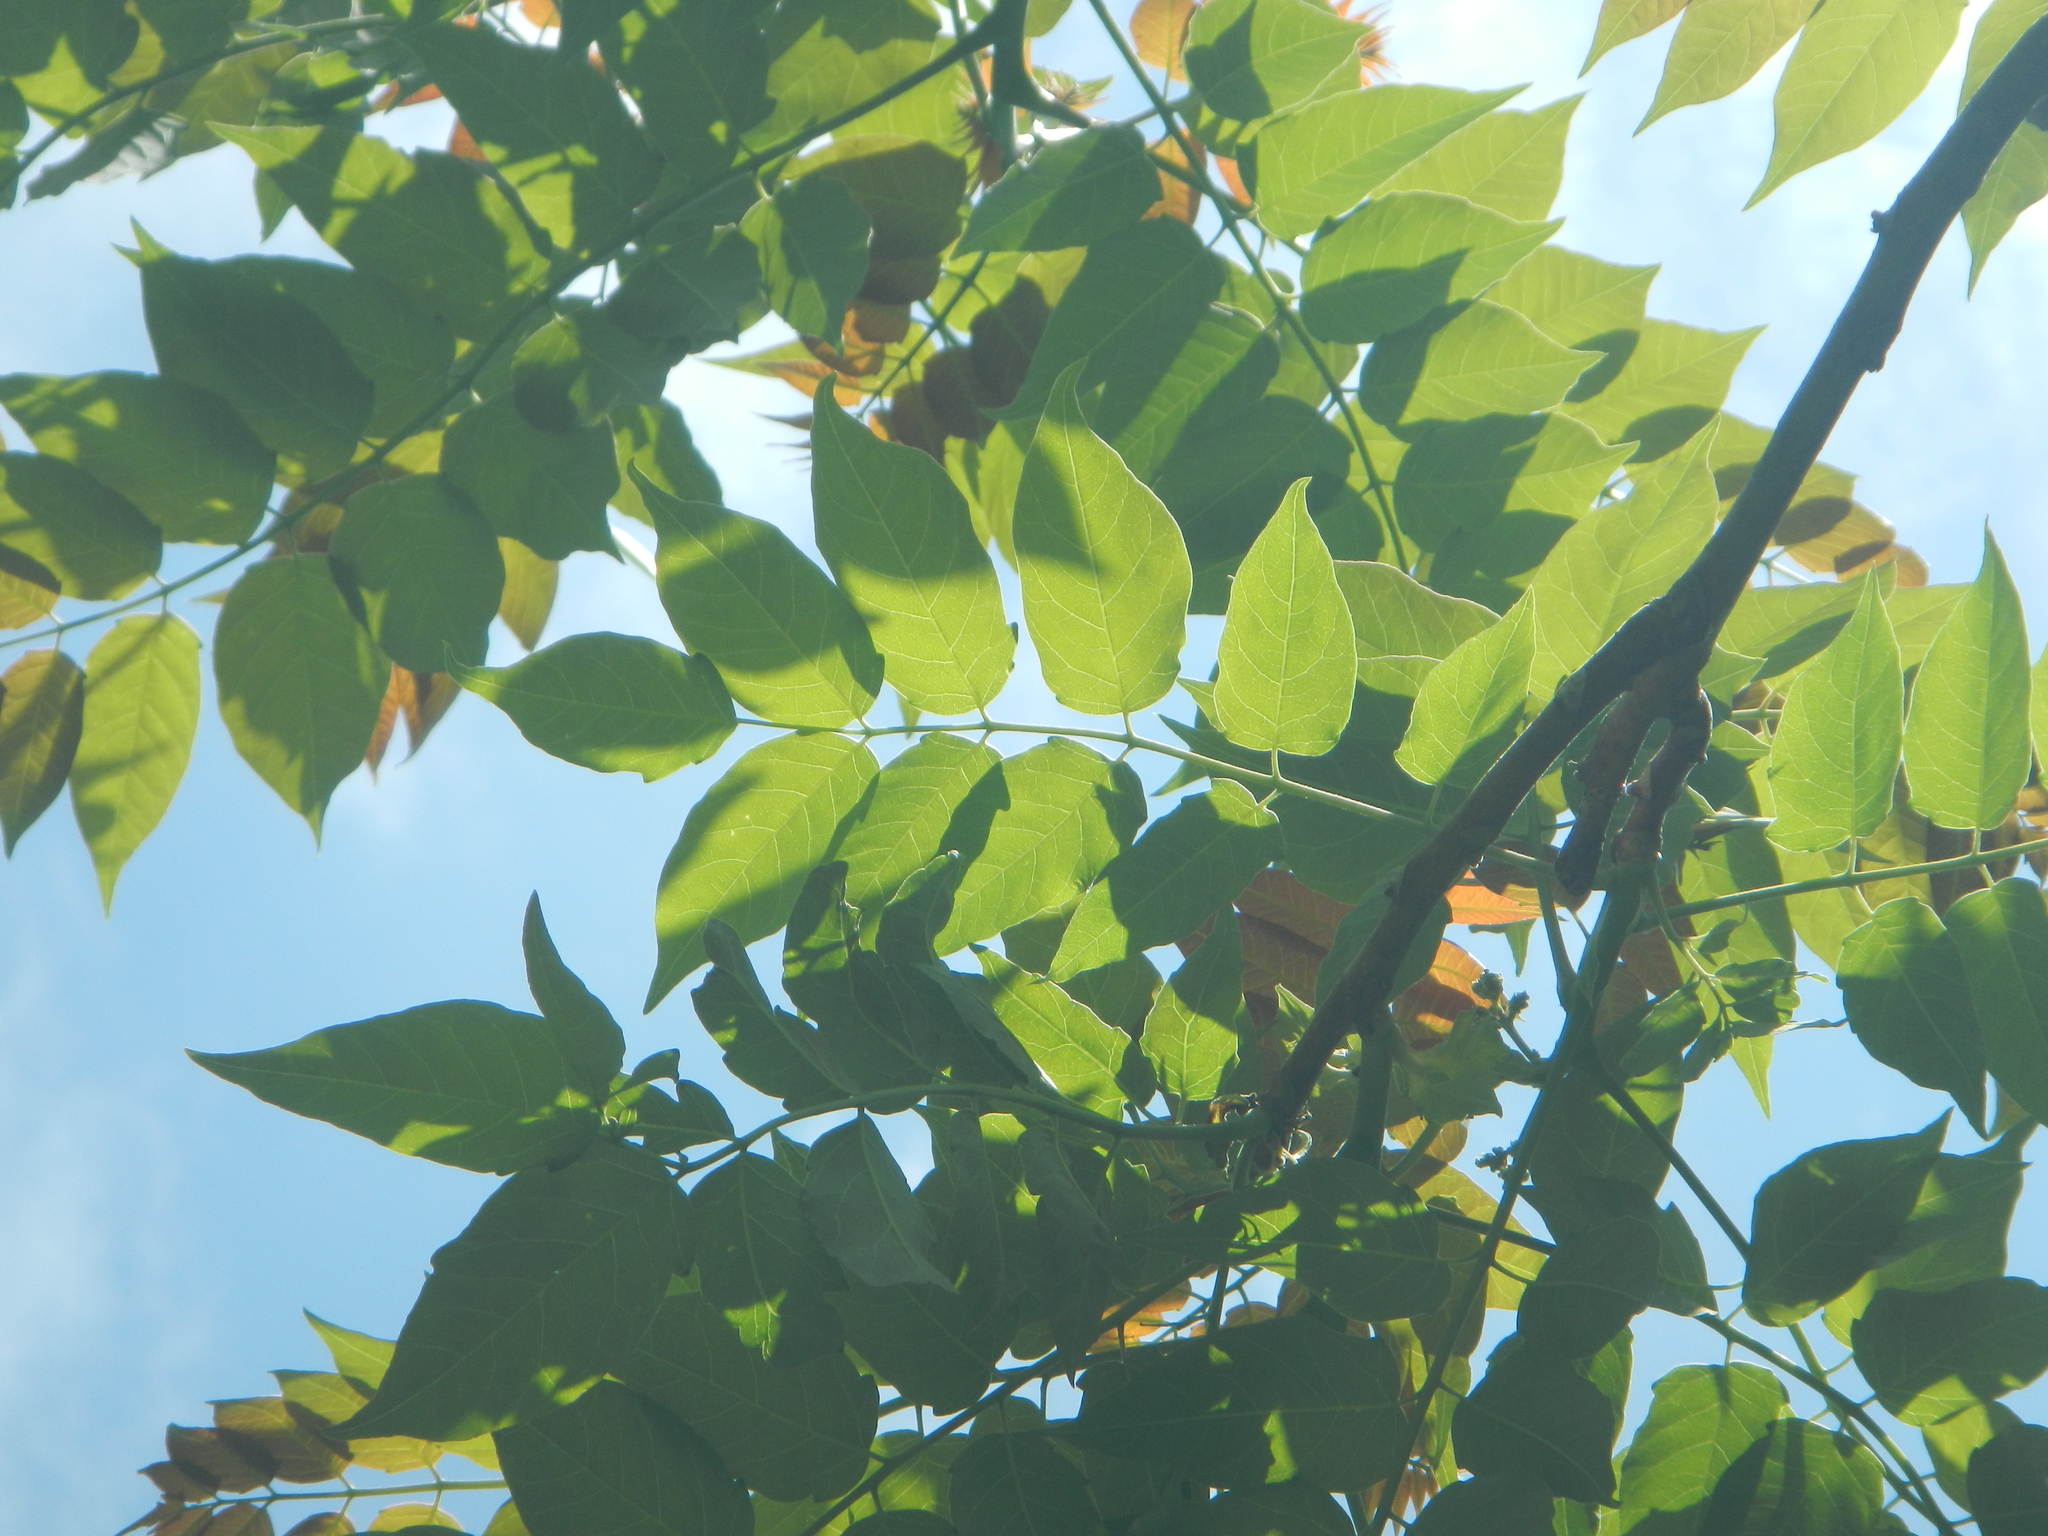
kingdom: Plantae
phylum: Tracheophyta
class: Magnoliopsida
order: Sapindales
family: Simaroubaceae
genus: Ailanthus
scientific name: Ailanthus altissima
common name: Tree-of-heaven
